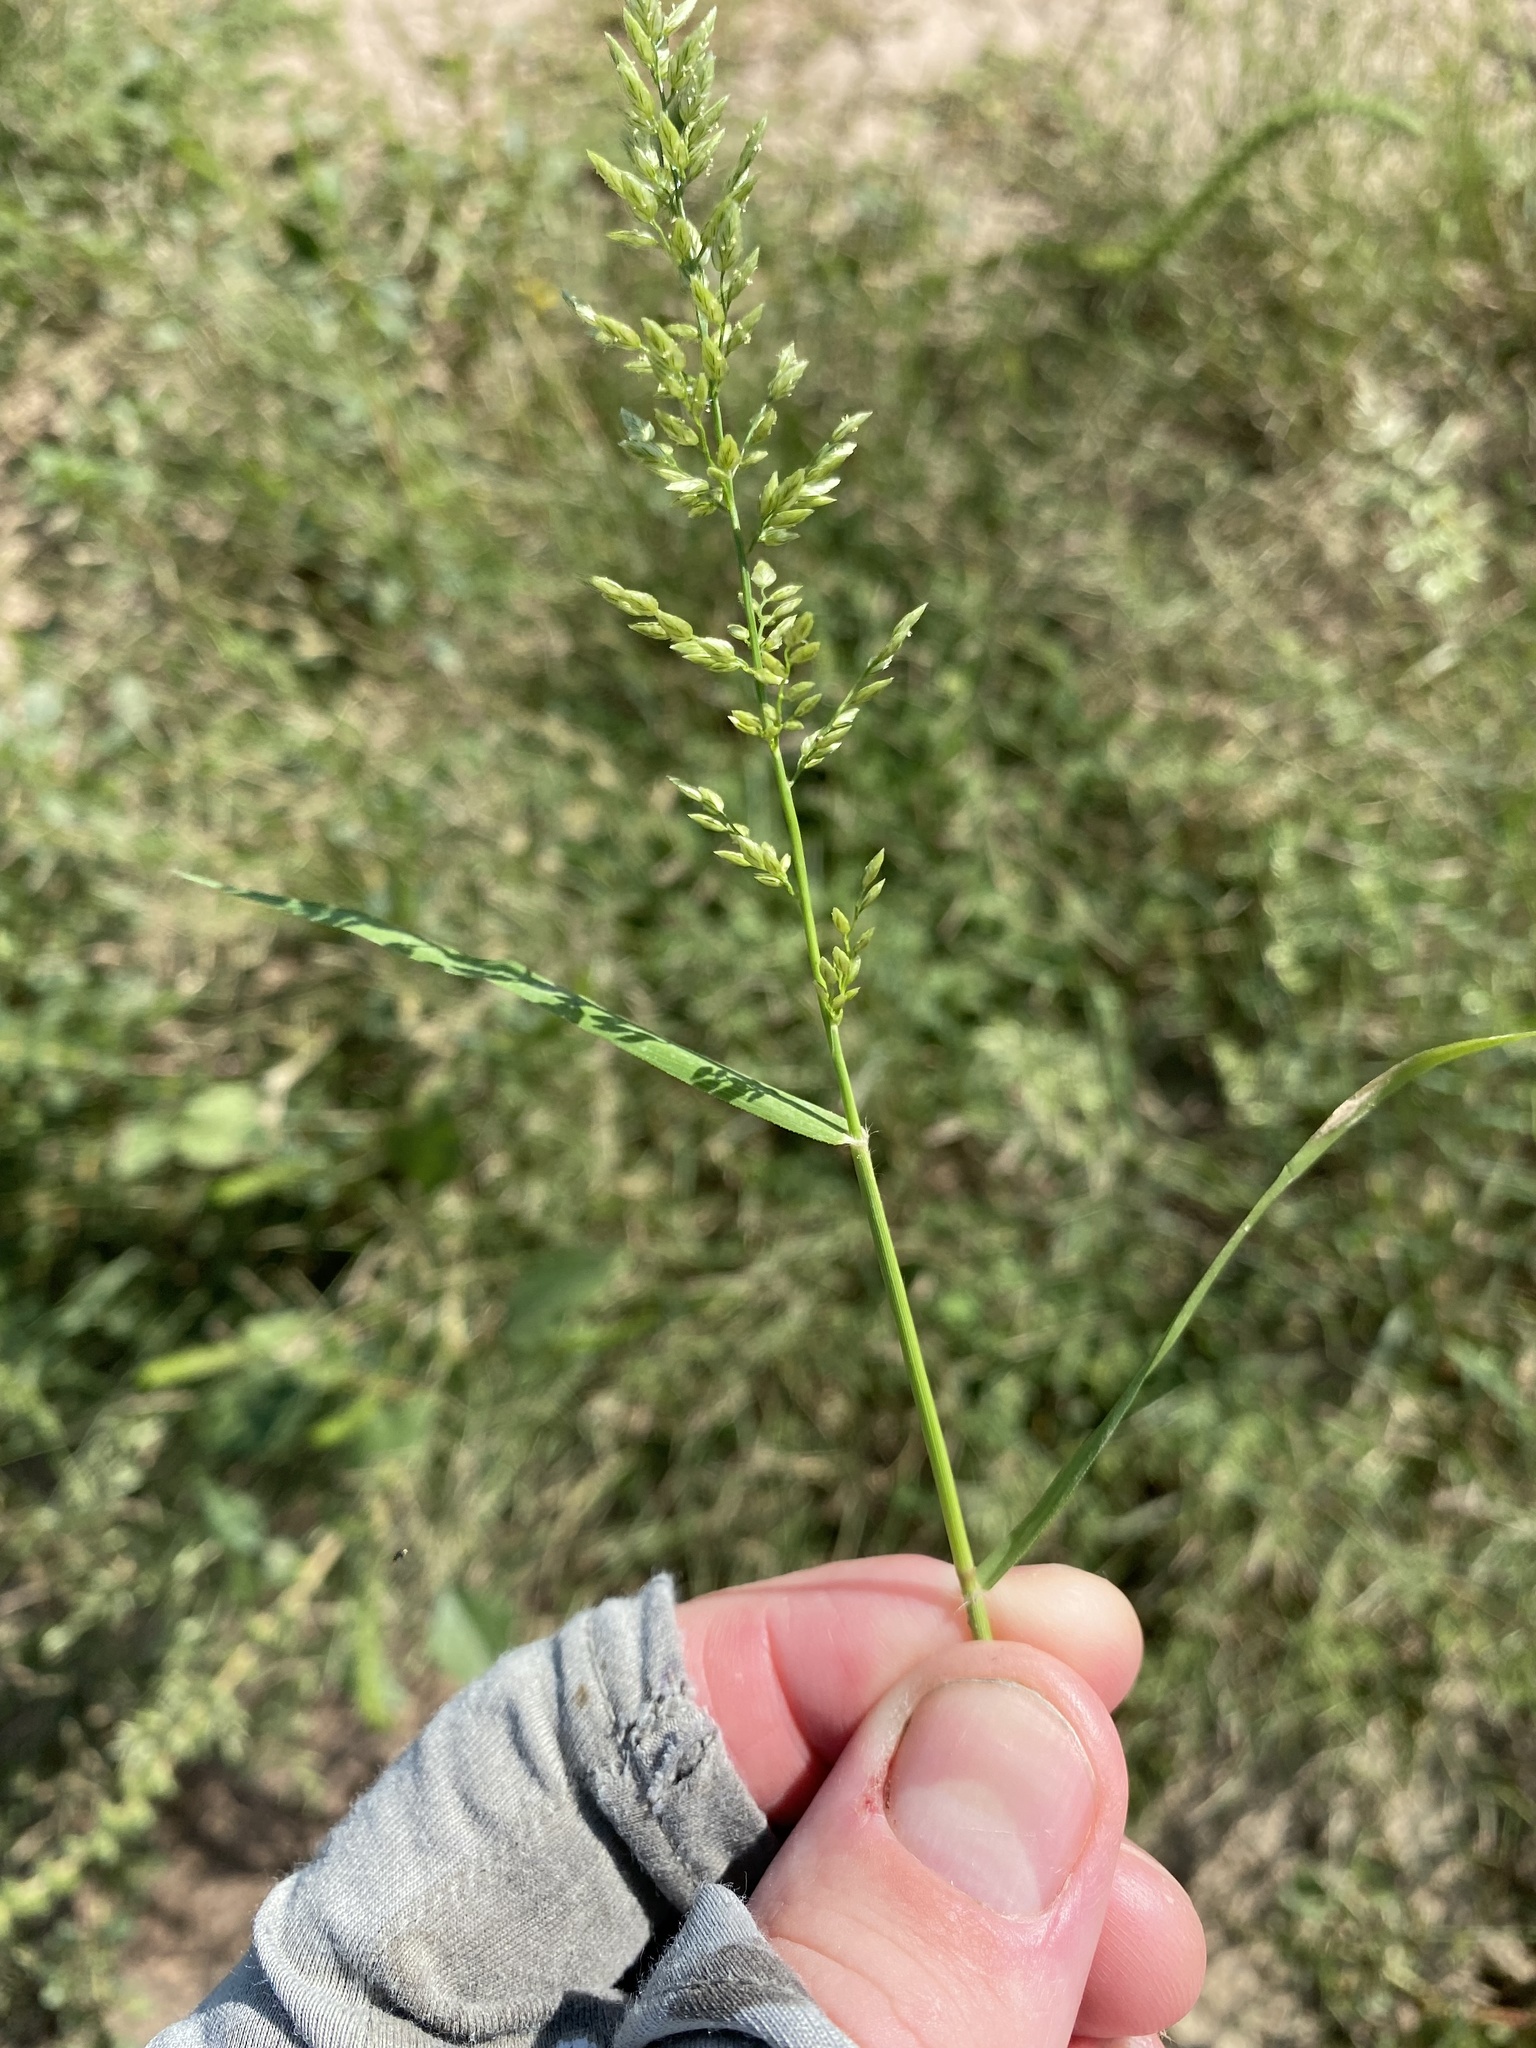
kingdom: Plantae
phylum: Tracheophyta
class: Liliopsida
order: Poales
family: Poaceae
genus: Eragrostis
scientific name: Eragrostis cilianensis
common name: Stinkgrass
